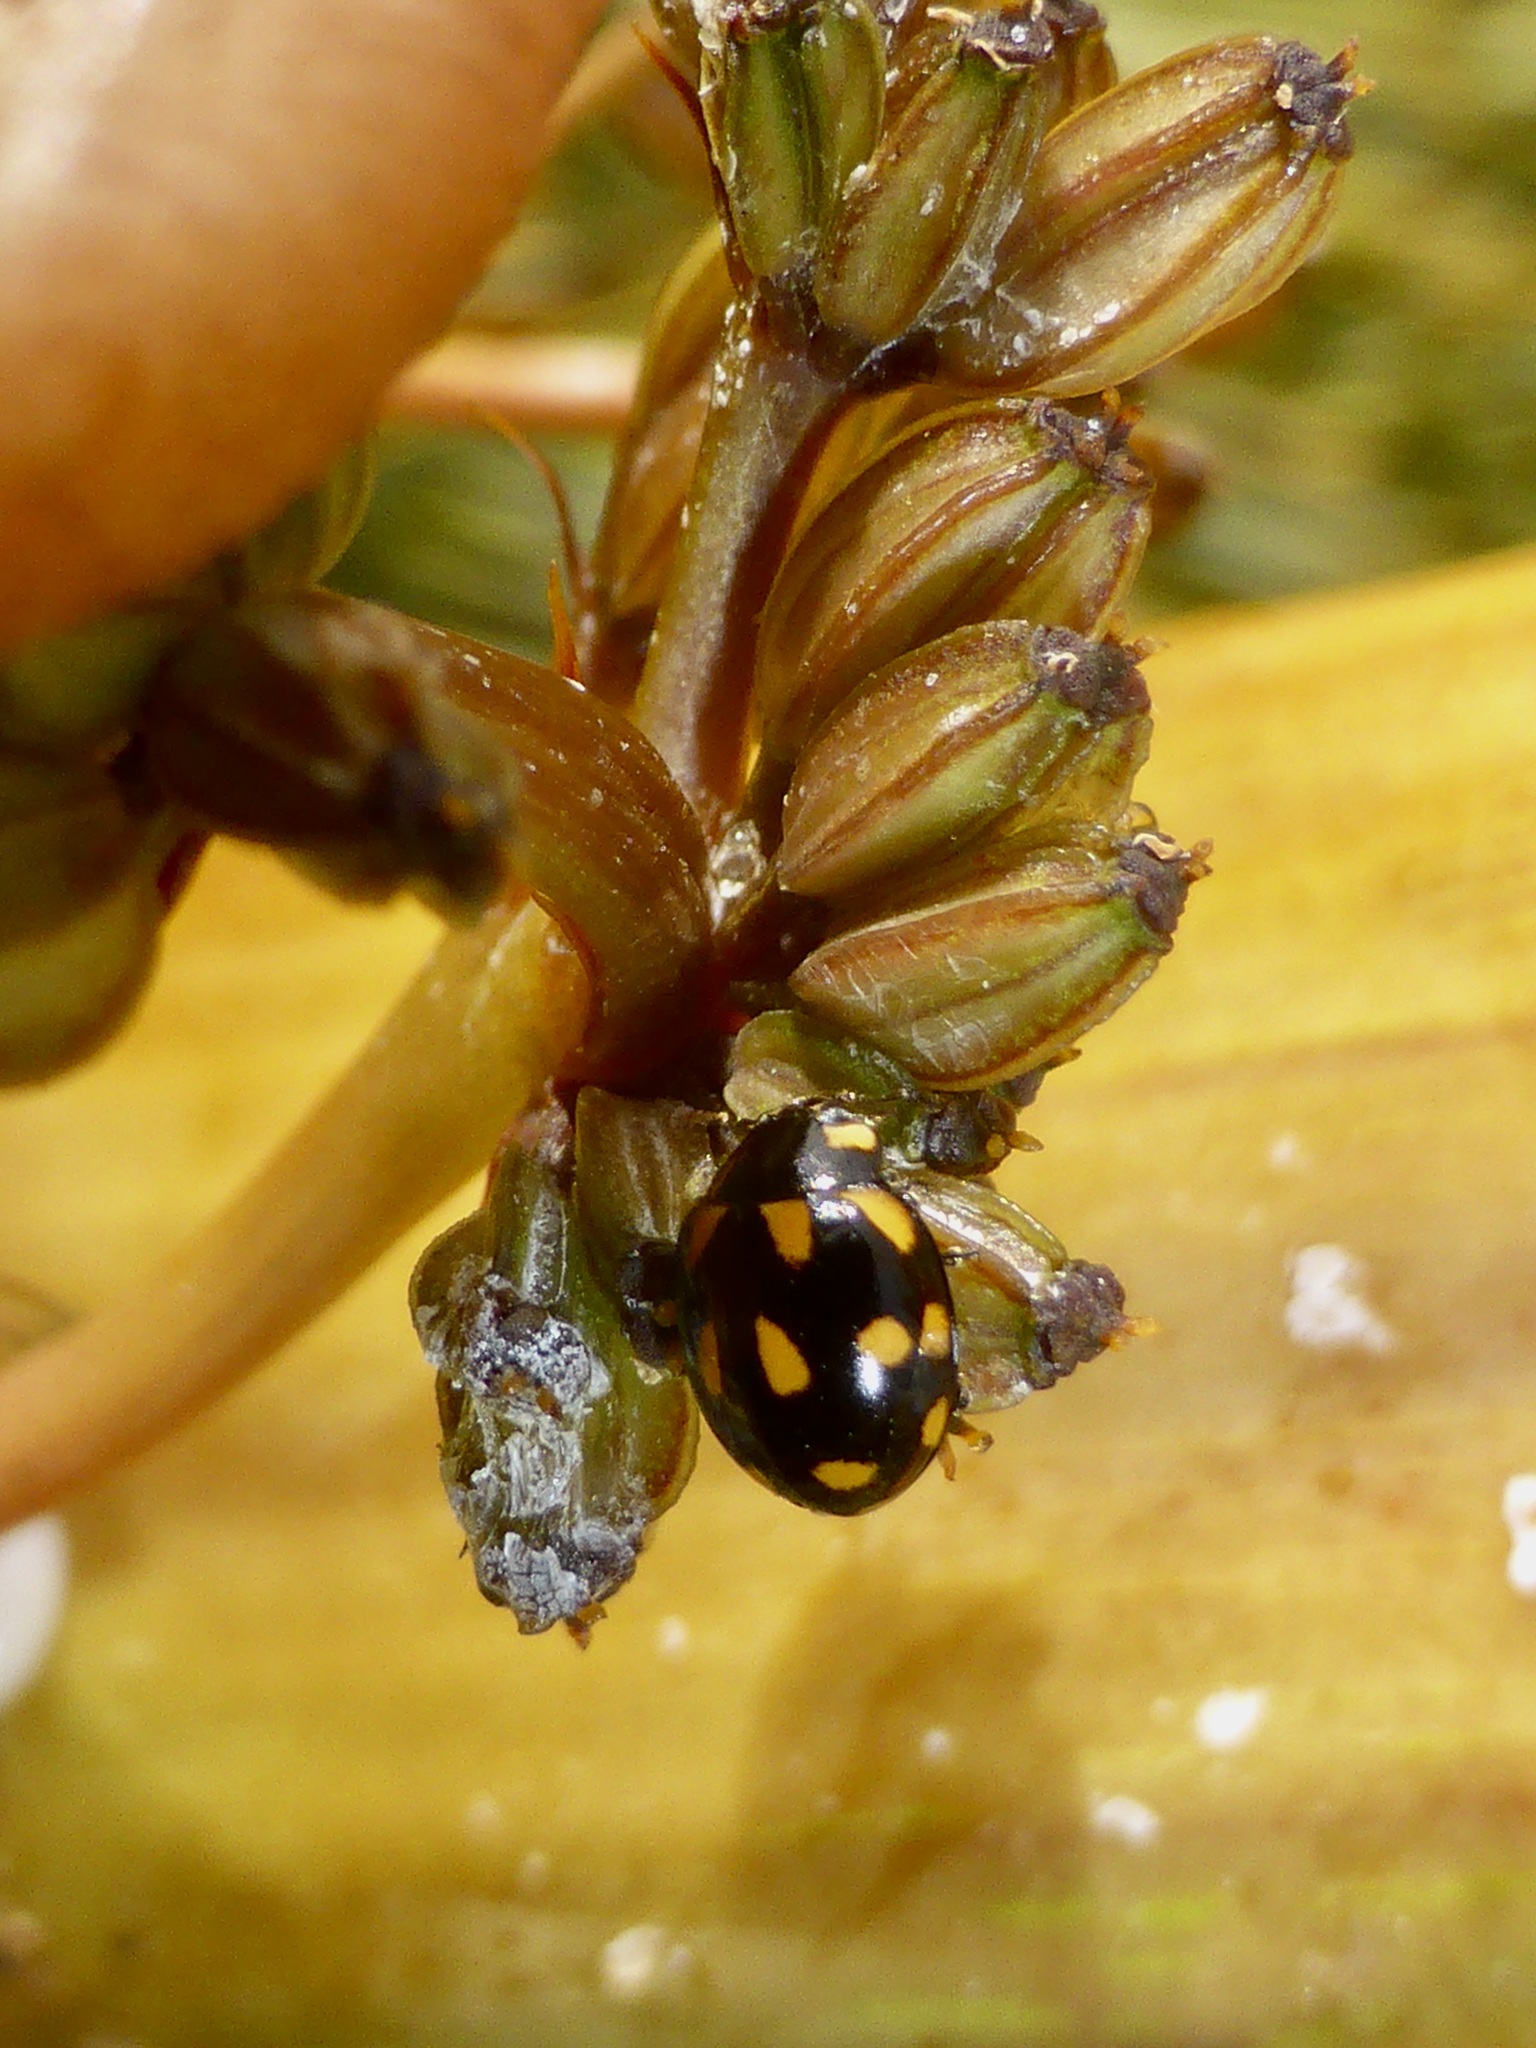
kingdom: Animalia
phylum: Arthropoda
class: Insecta
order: Coleoptera
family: Coccinellidae
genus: Coccinella
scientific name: Coccinella leonina
